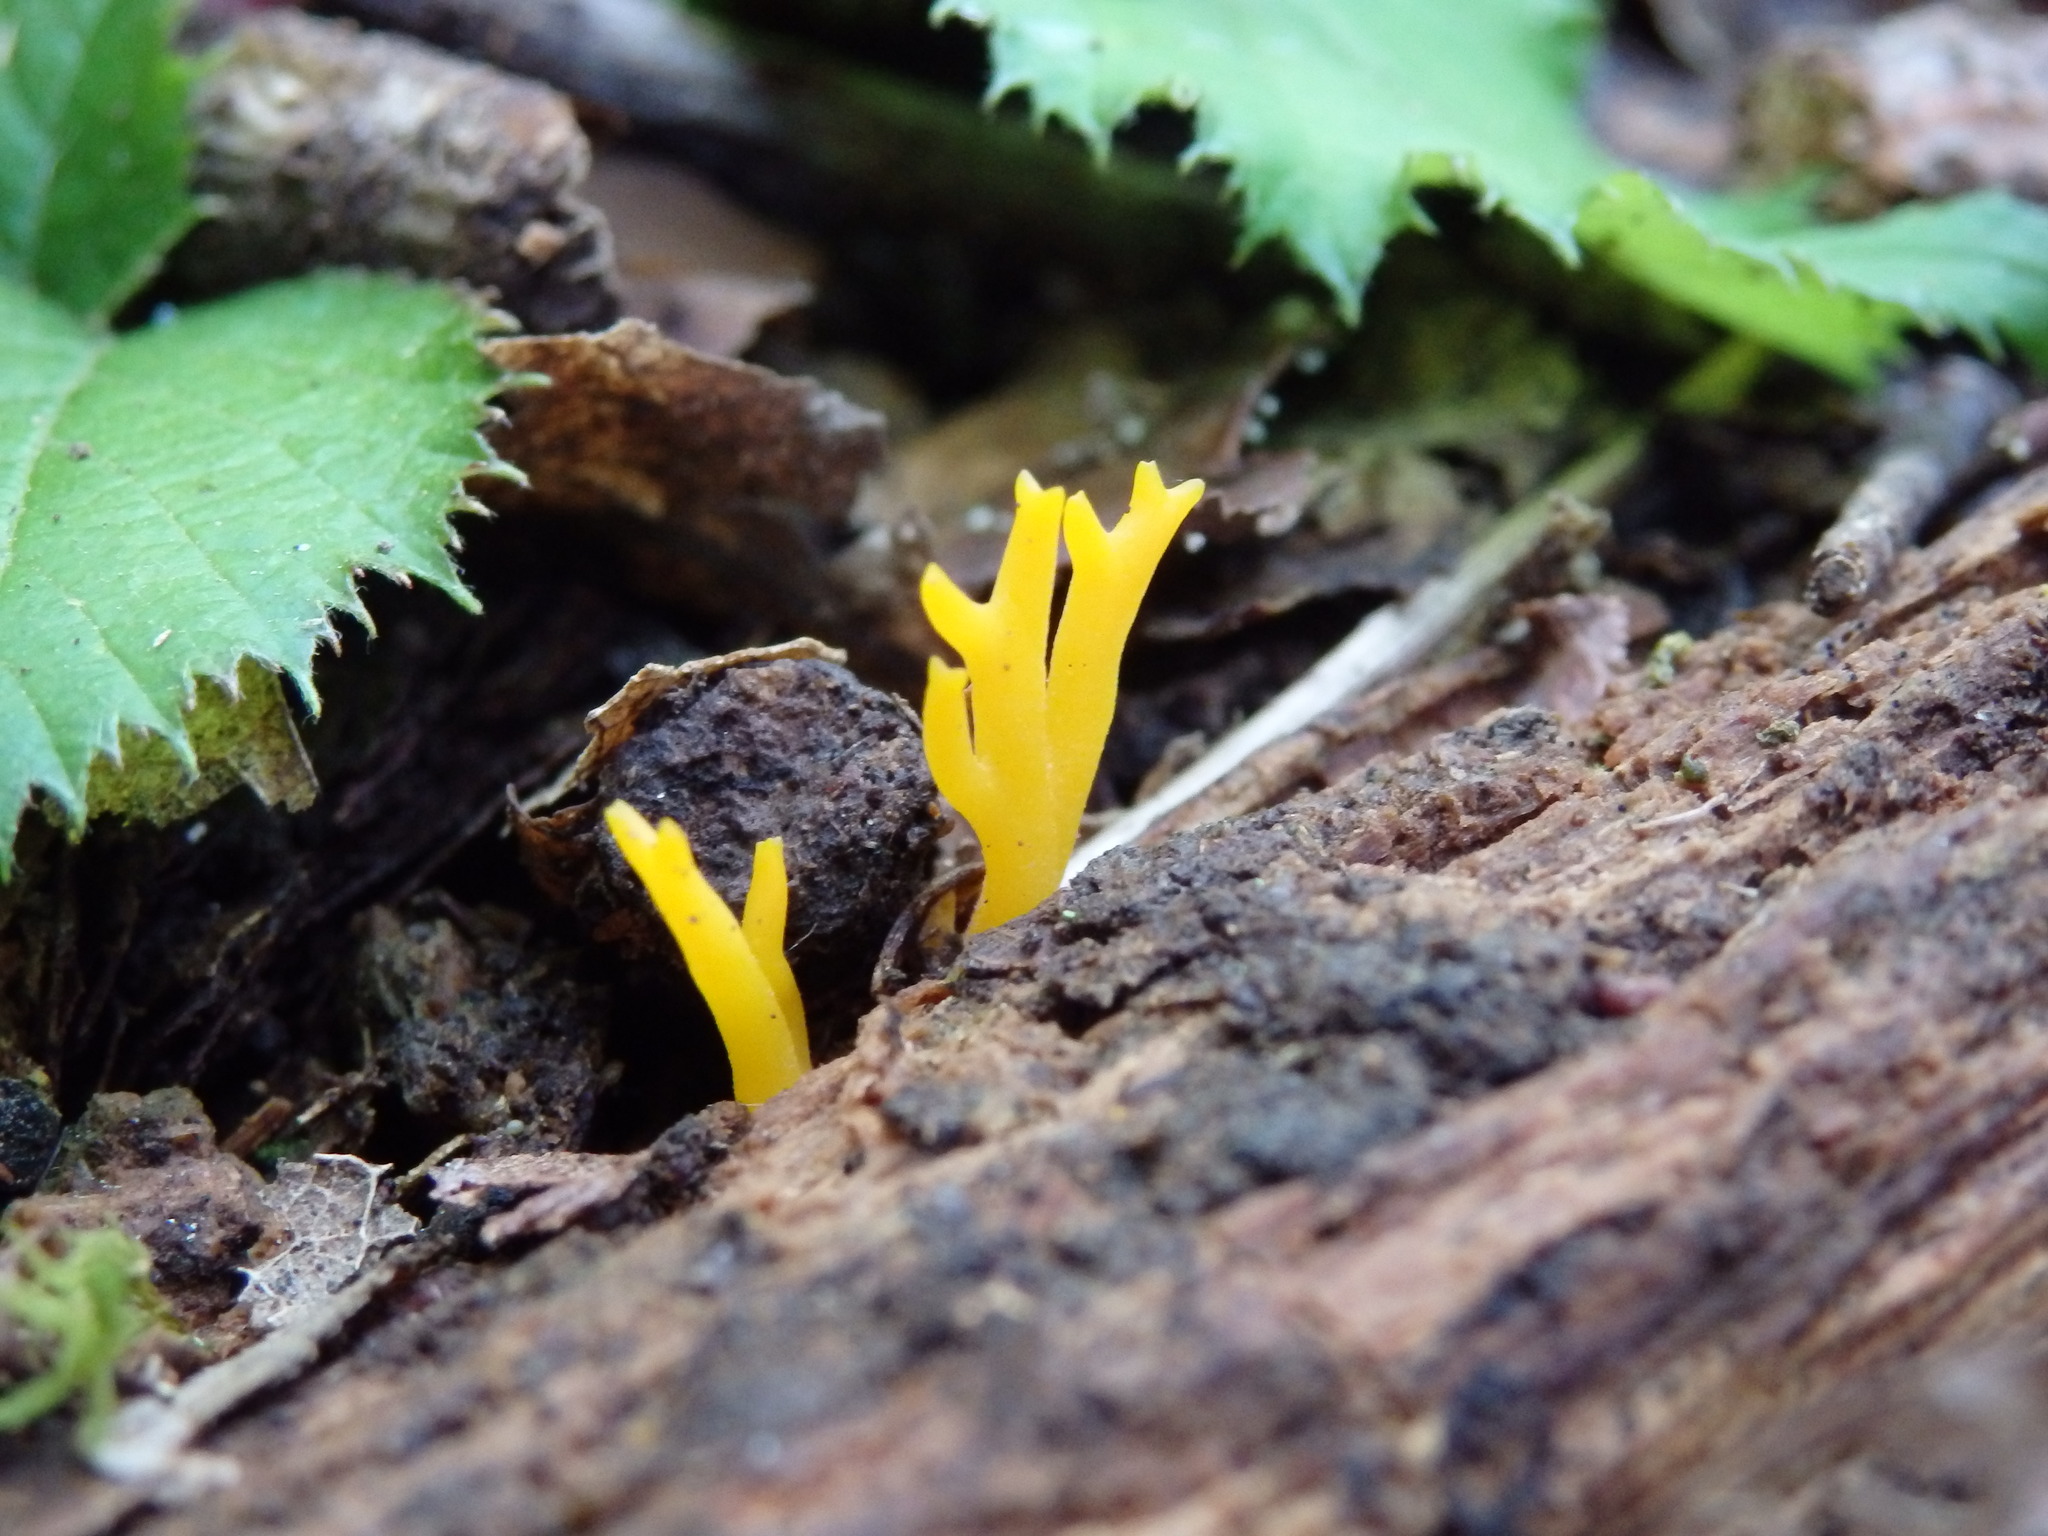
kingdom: Fungi
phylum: Basidiomycota
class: Dacrymycetes
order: Dacrymycetales
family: Dacrymycetaceae
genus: Calocera
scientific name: Calocera viscosa
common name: Yellow stagshorn
